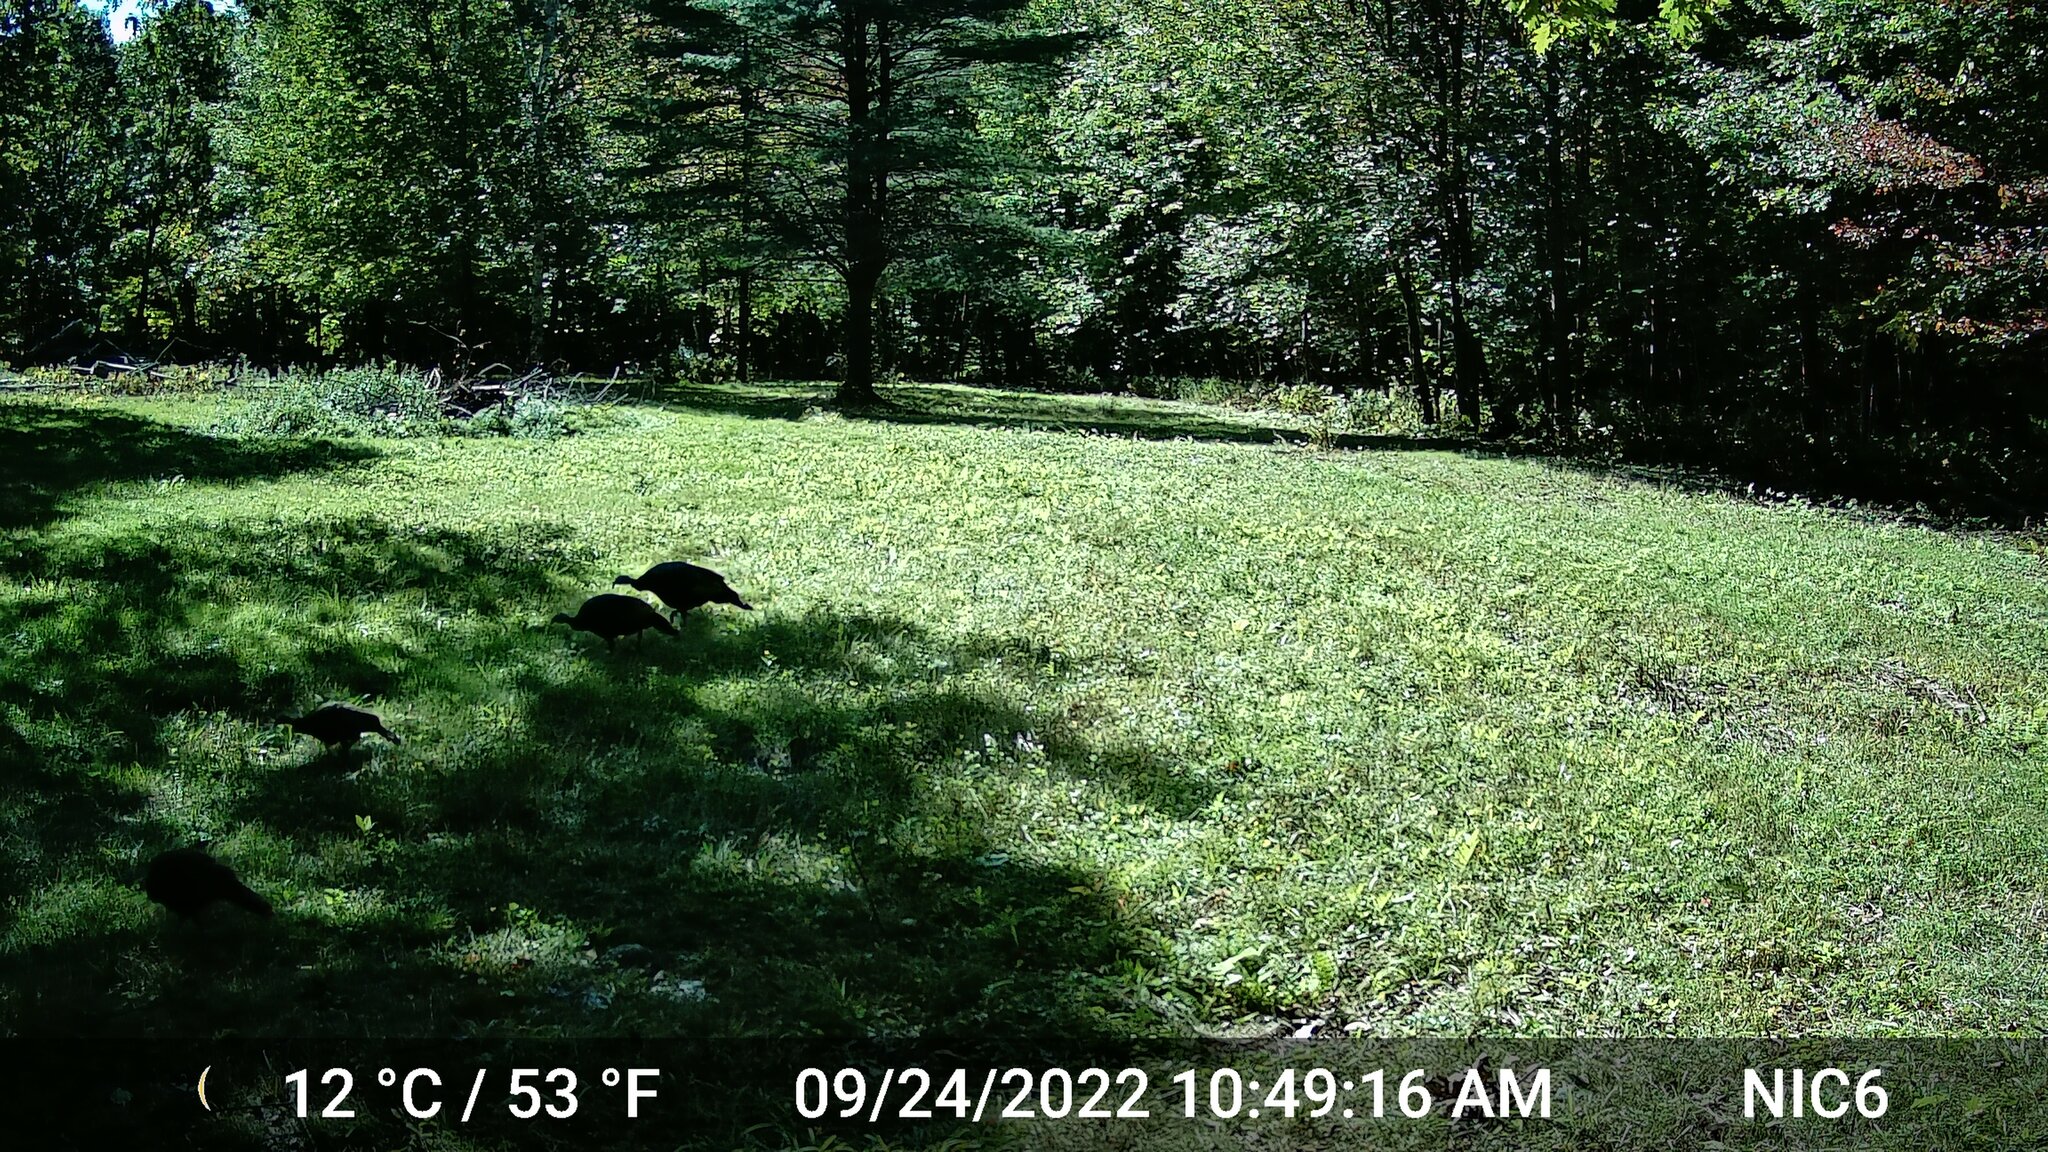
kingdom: Animalia
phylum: Chordata
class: Aves
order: Galliformes
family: Phasianidae
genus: Meleagris
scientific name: Meleagris gallopavo
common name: Wild turkey
